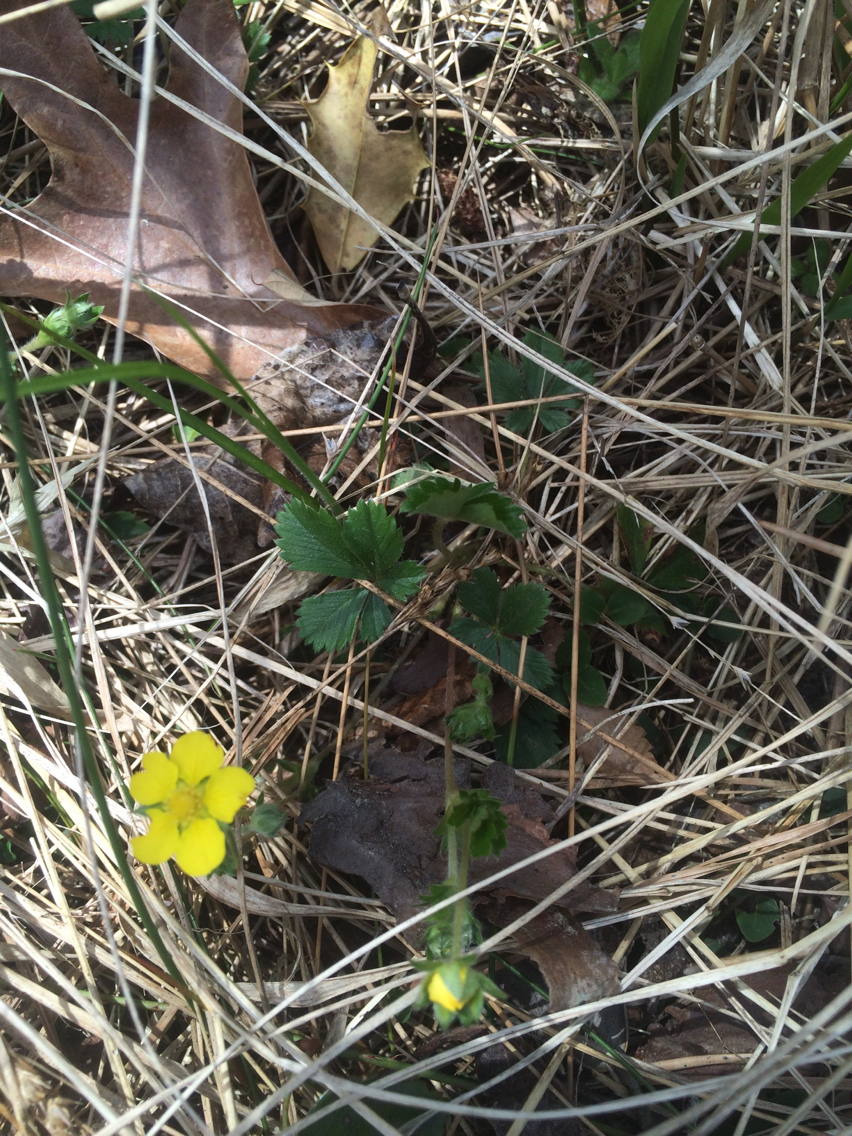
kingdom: Plantae
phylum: Tracheophyta
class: Magnoliopsida
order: Rosales
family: Rosaceae
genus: Potentilla
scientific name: Potentilla canadensis
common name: Canada cinquefoil
